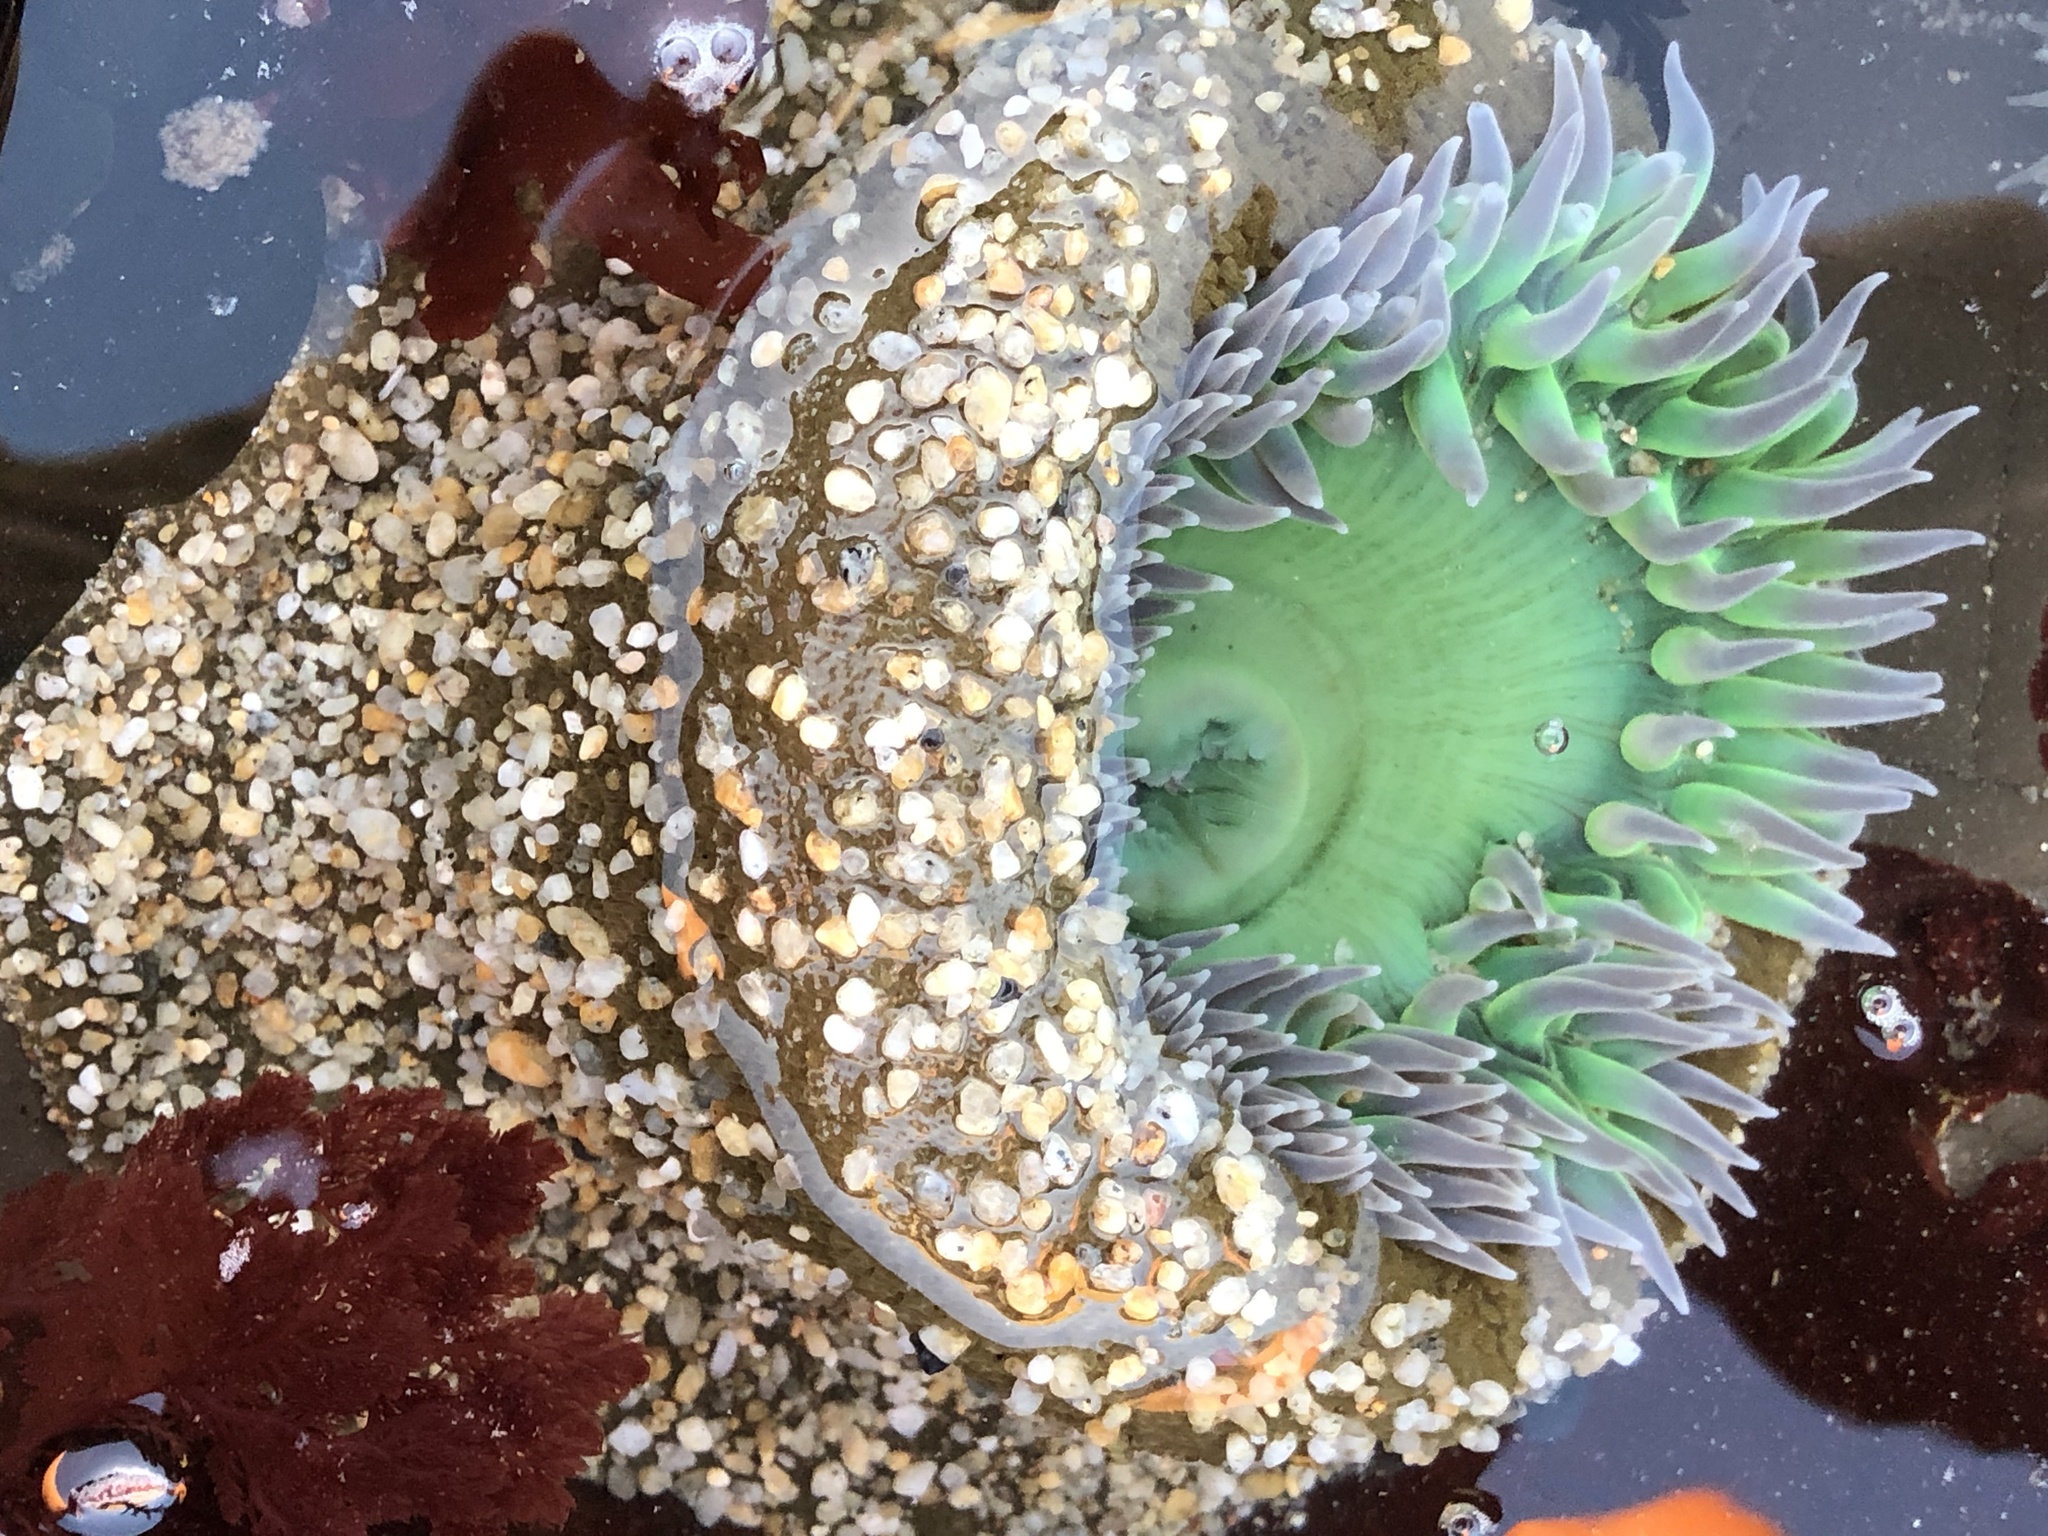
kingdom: Animalia
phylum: Cnidaria
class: Anthozoa
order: Actiniaria
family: Actiniidae
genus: Anthopleura
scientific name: Anthopleura xanthogrammica
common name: Giant green anemone
